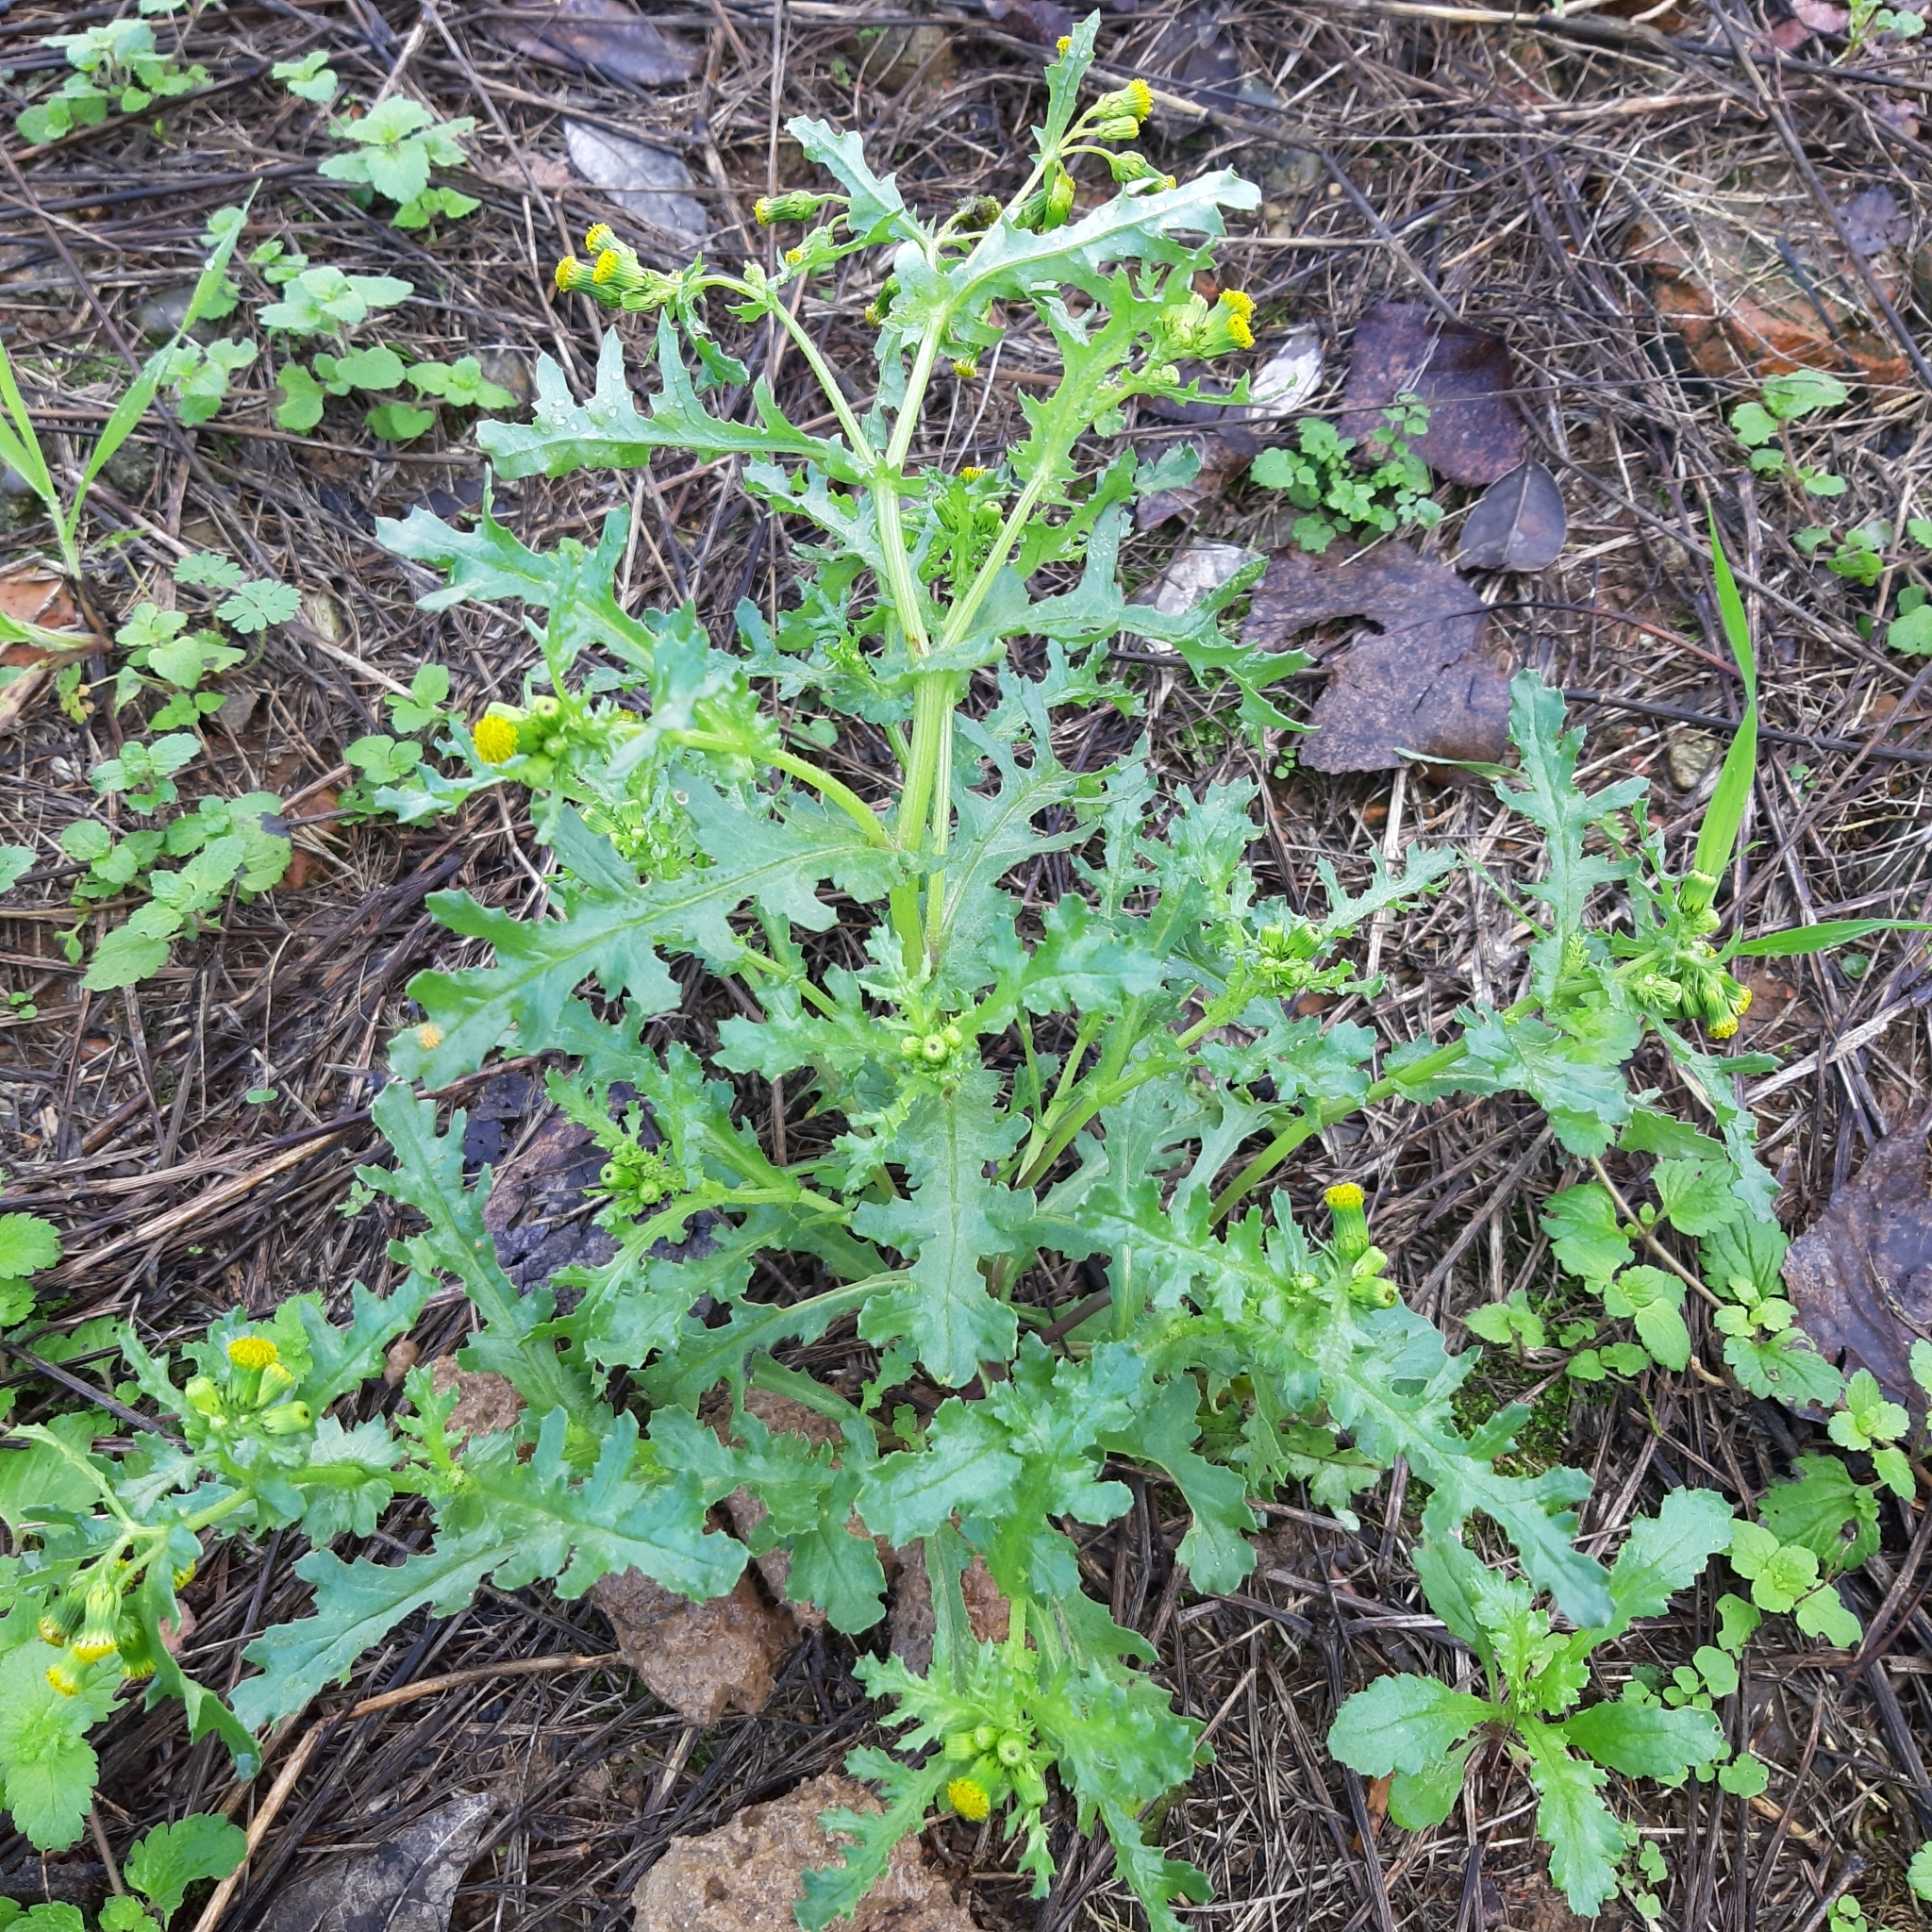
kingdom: Plantae
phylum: Tracheophyta
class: Magnoliopsida
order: Asterales
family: Asteraceae
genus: Senecio
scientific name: Senecio vulgaris
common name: Old-man-in-the-spring
